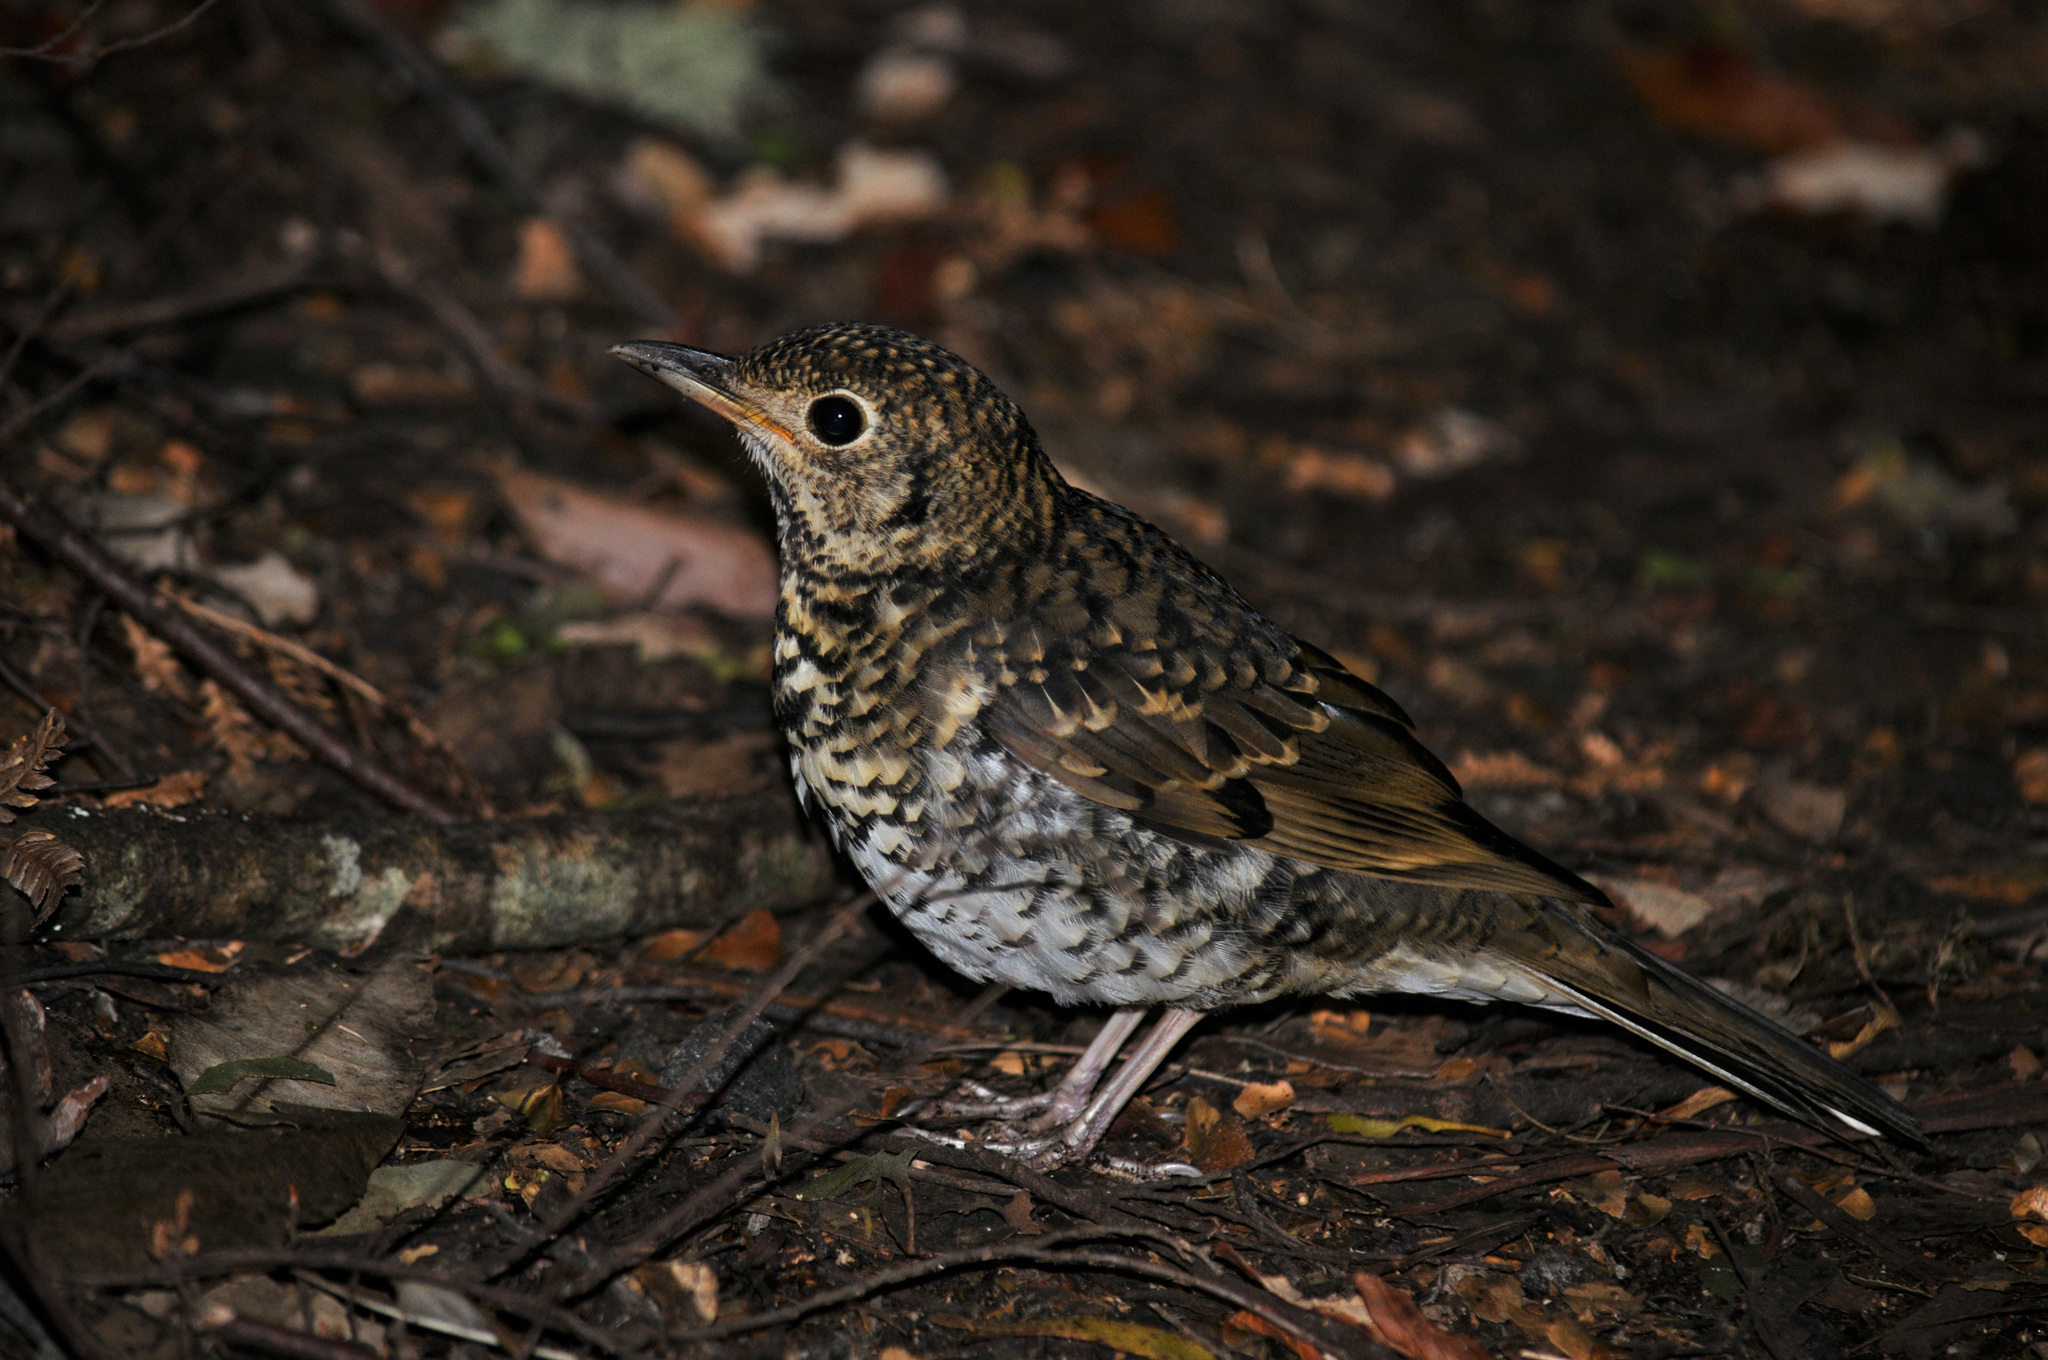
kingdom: Animalia
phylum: Chordata
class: Aves
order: Passeriformes
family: Turdidae
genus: Zoothera
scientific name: Zoothera lunulata
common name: Bassian thrush
